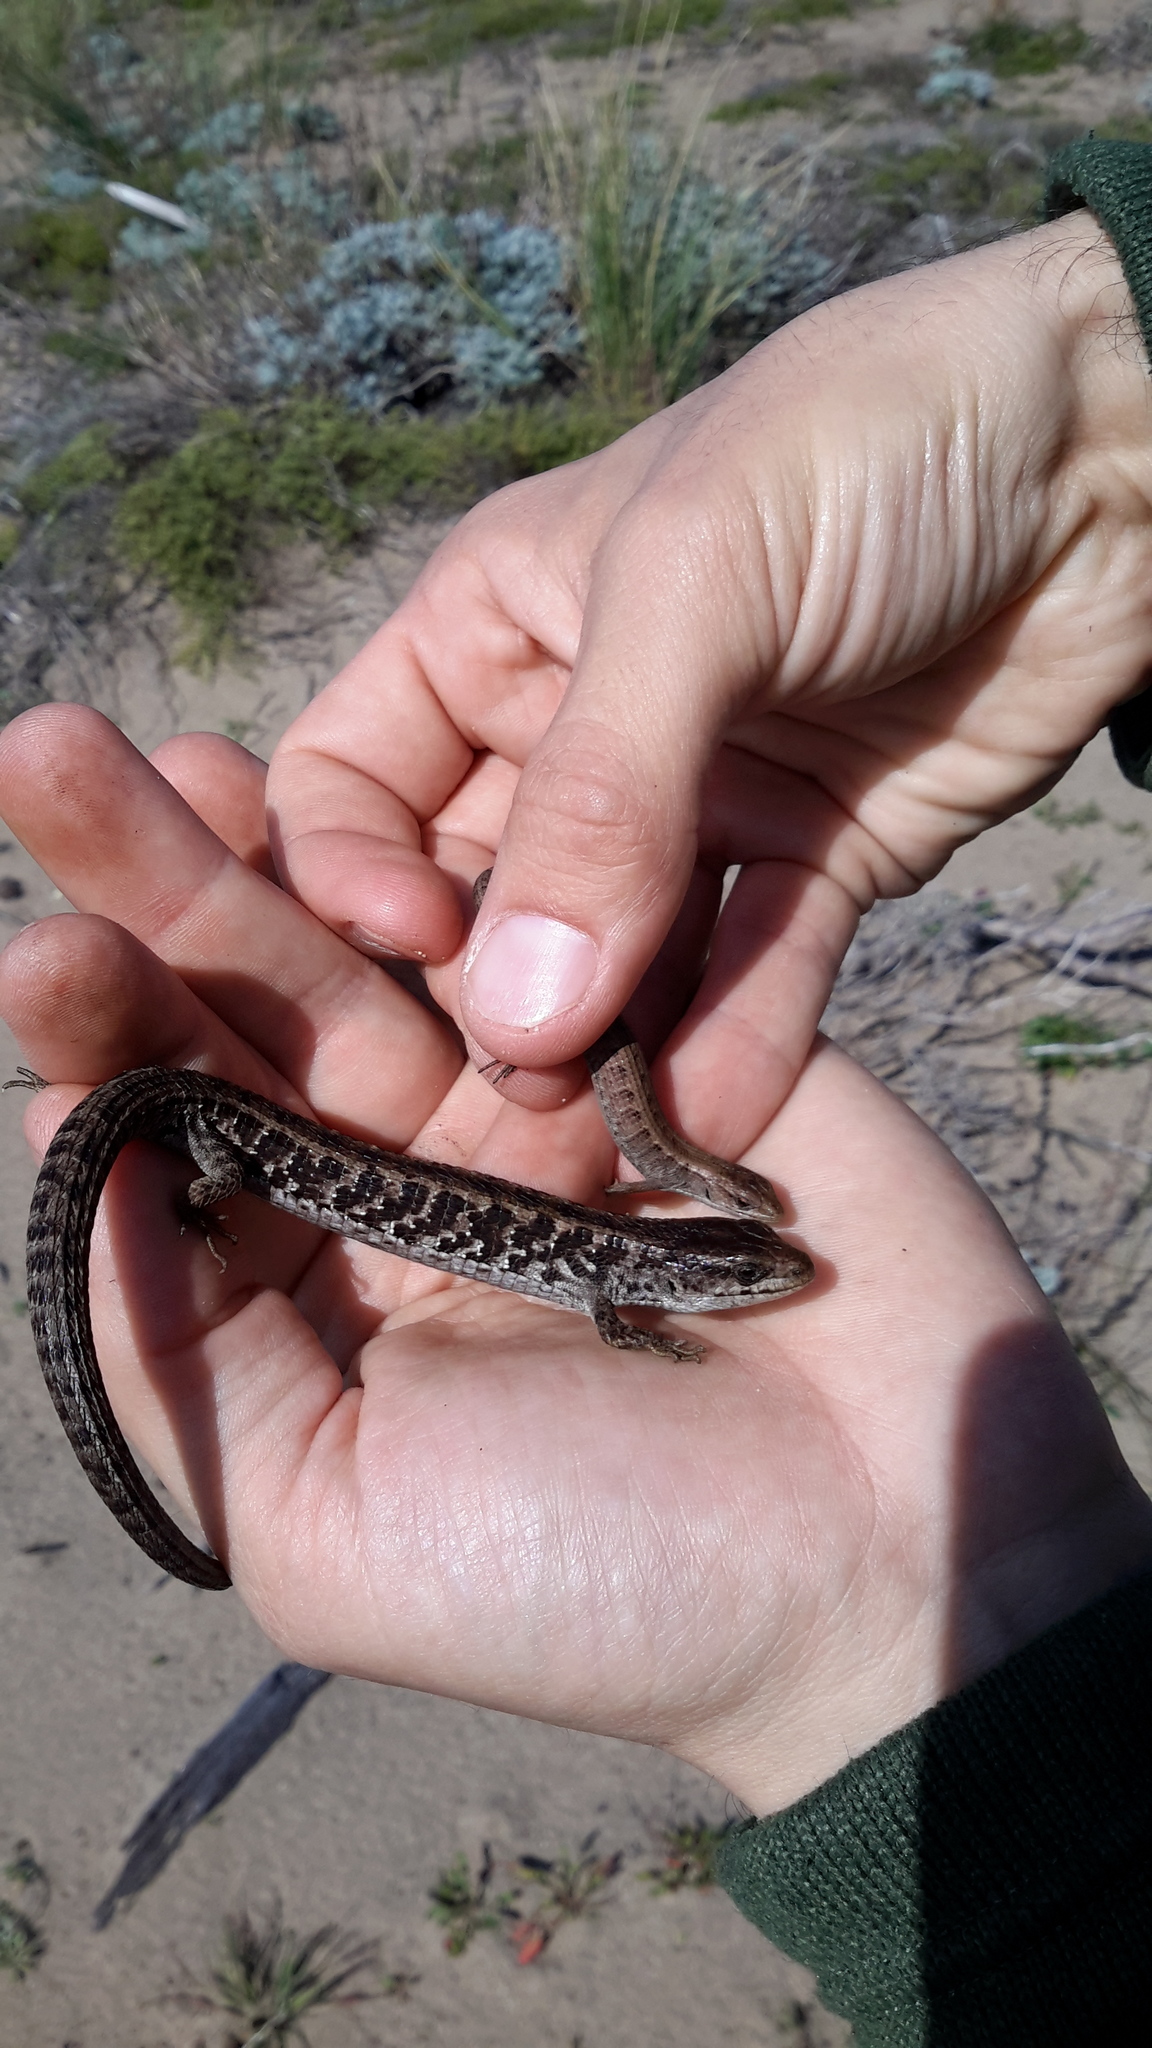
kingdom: Animalia
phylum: Chordata
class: Squamata
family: Anguidae
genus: Elgaria
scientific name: Elgaria coerulea
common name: Northern alligator lizard
